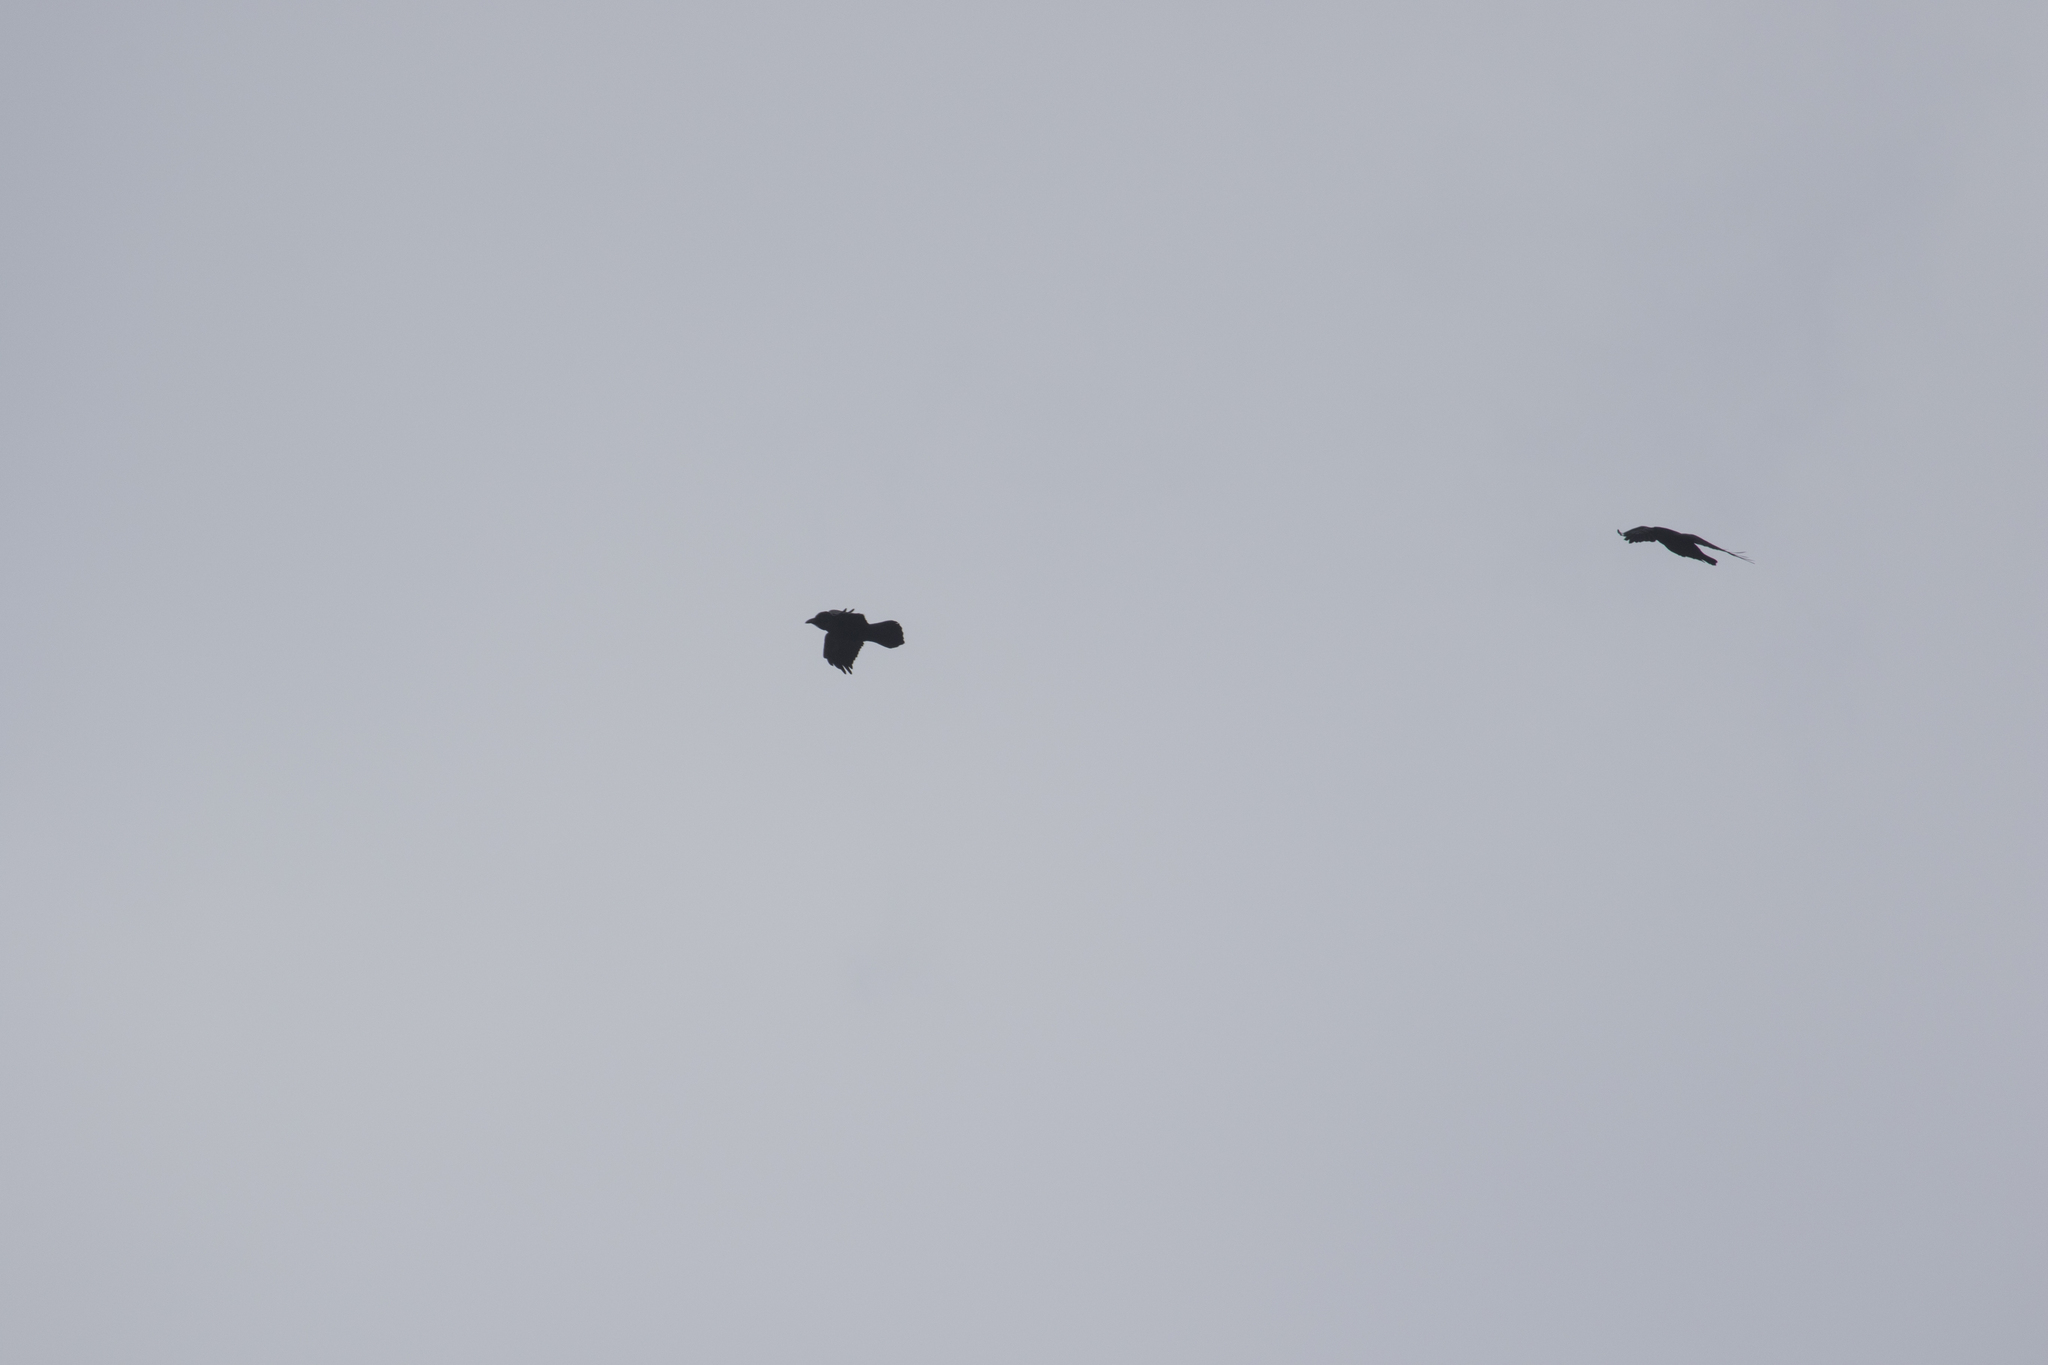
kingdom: Animalia
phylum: Chordata
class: Aves
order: Passeriformes
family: Corvidae
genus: Corvus
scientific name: Corvus corax
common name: Common raven
